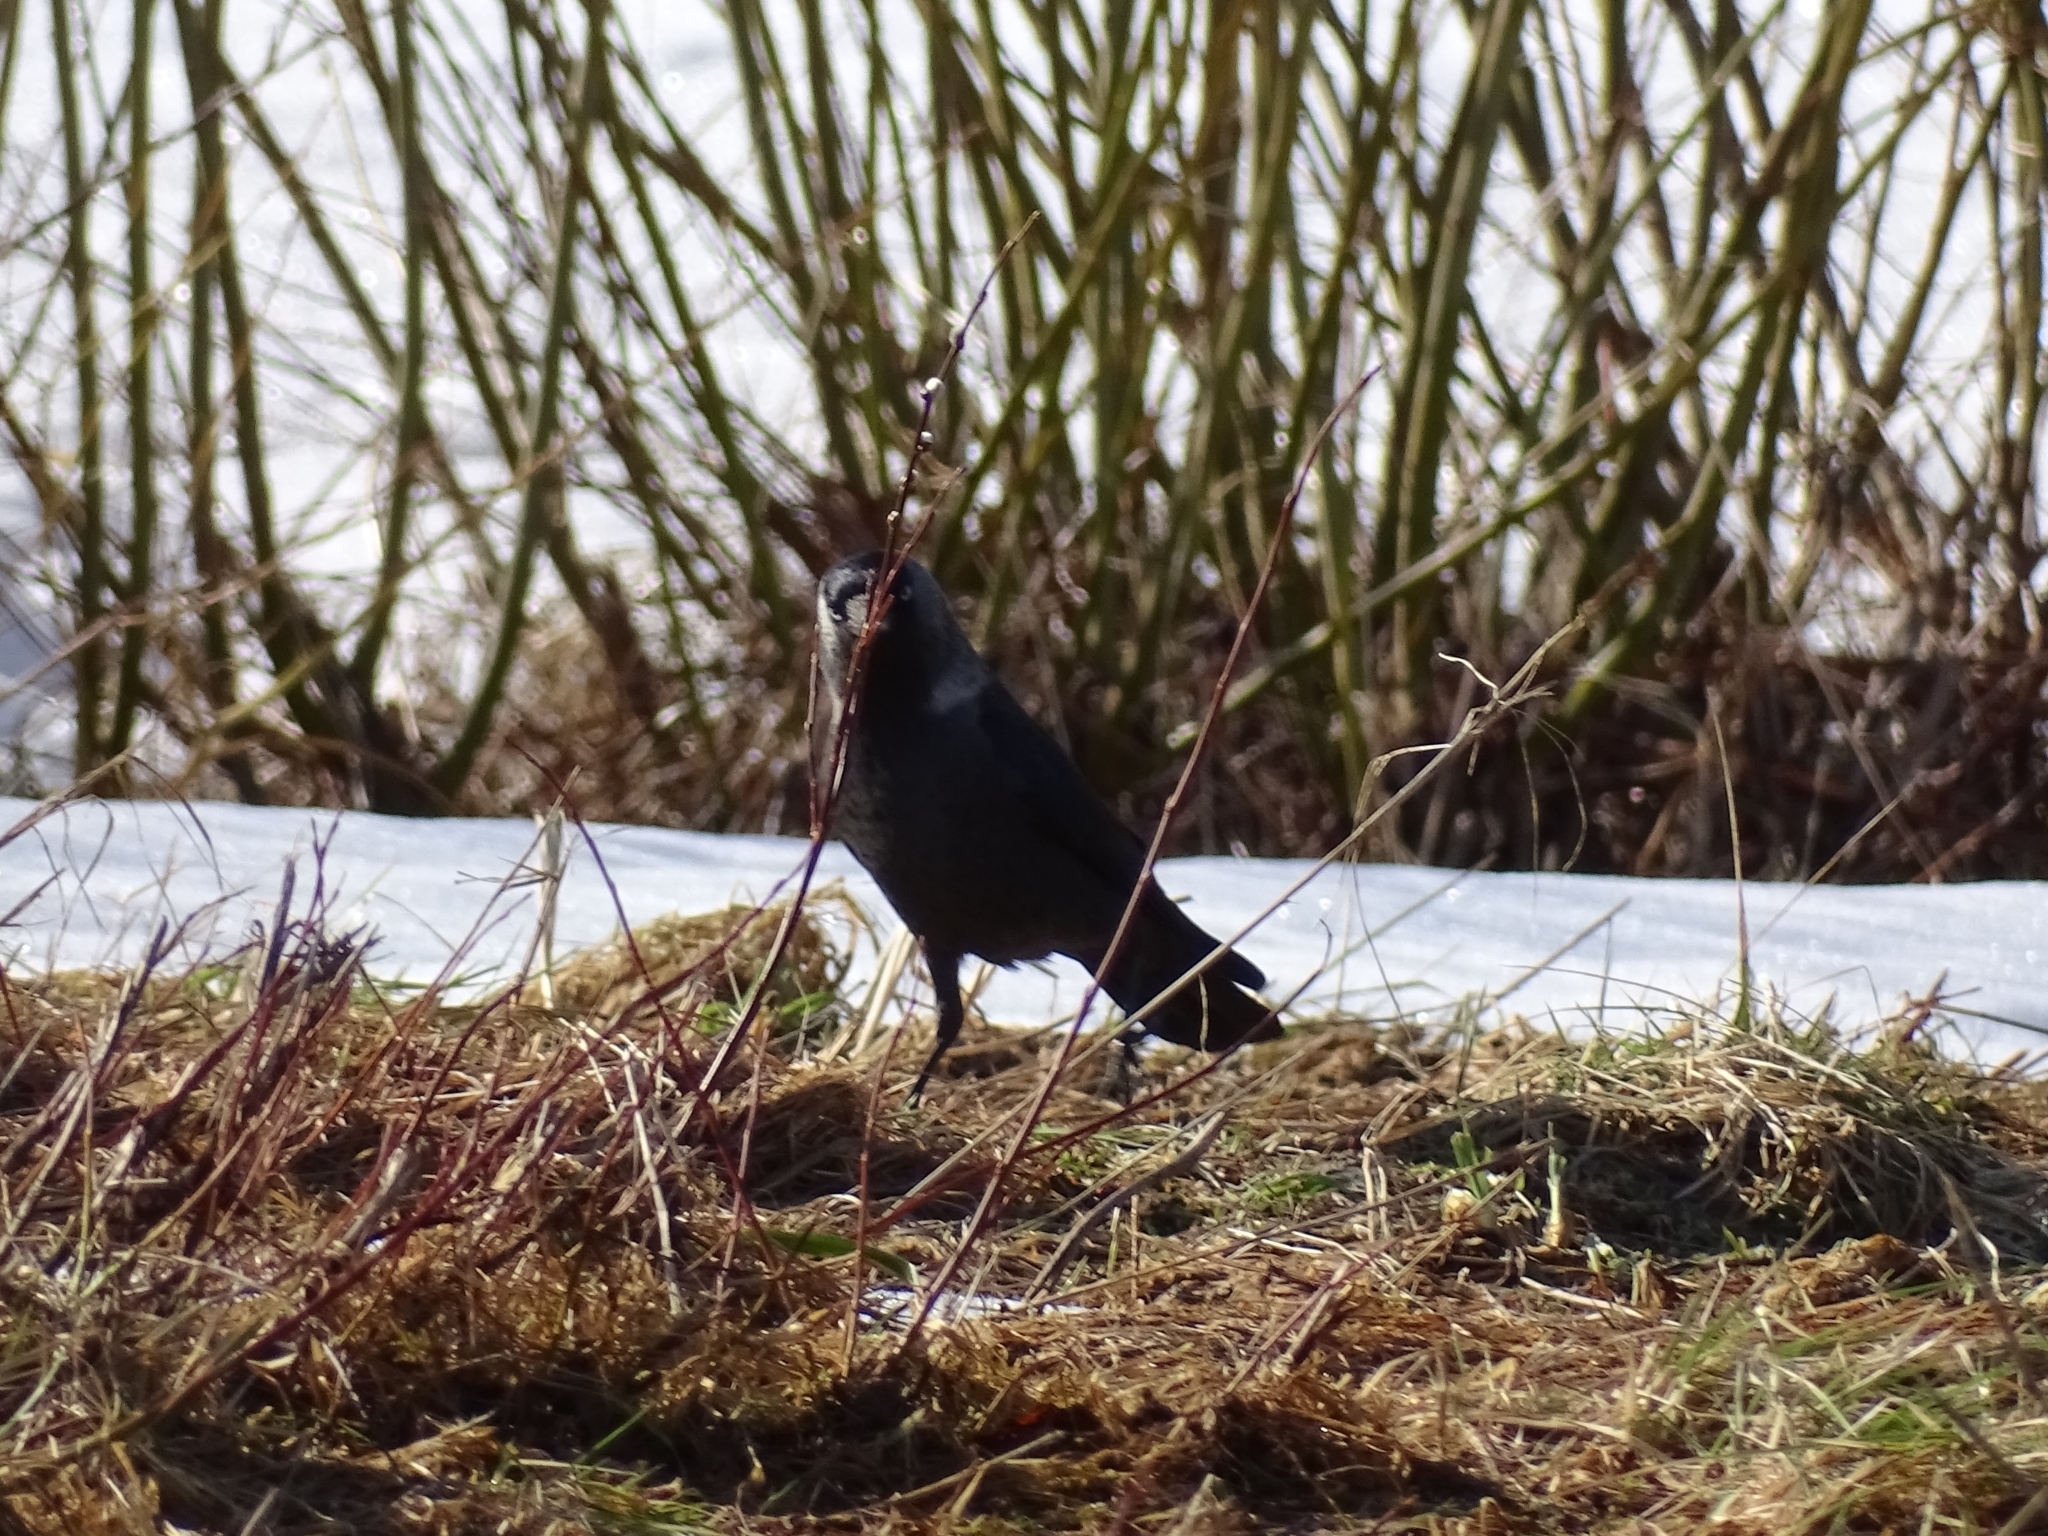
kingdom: Animalia
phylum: Chordata
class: Aves
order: Passeriformes
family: Corvidae
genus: Coloeus
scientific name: Coloeus monedula
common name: Western jackdaw
